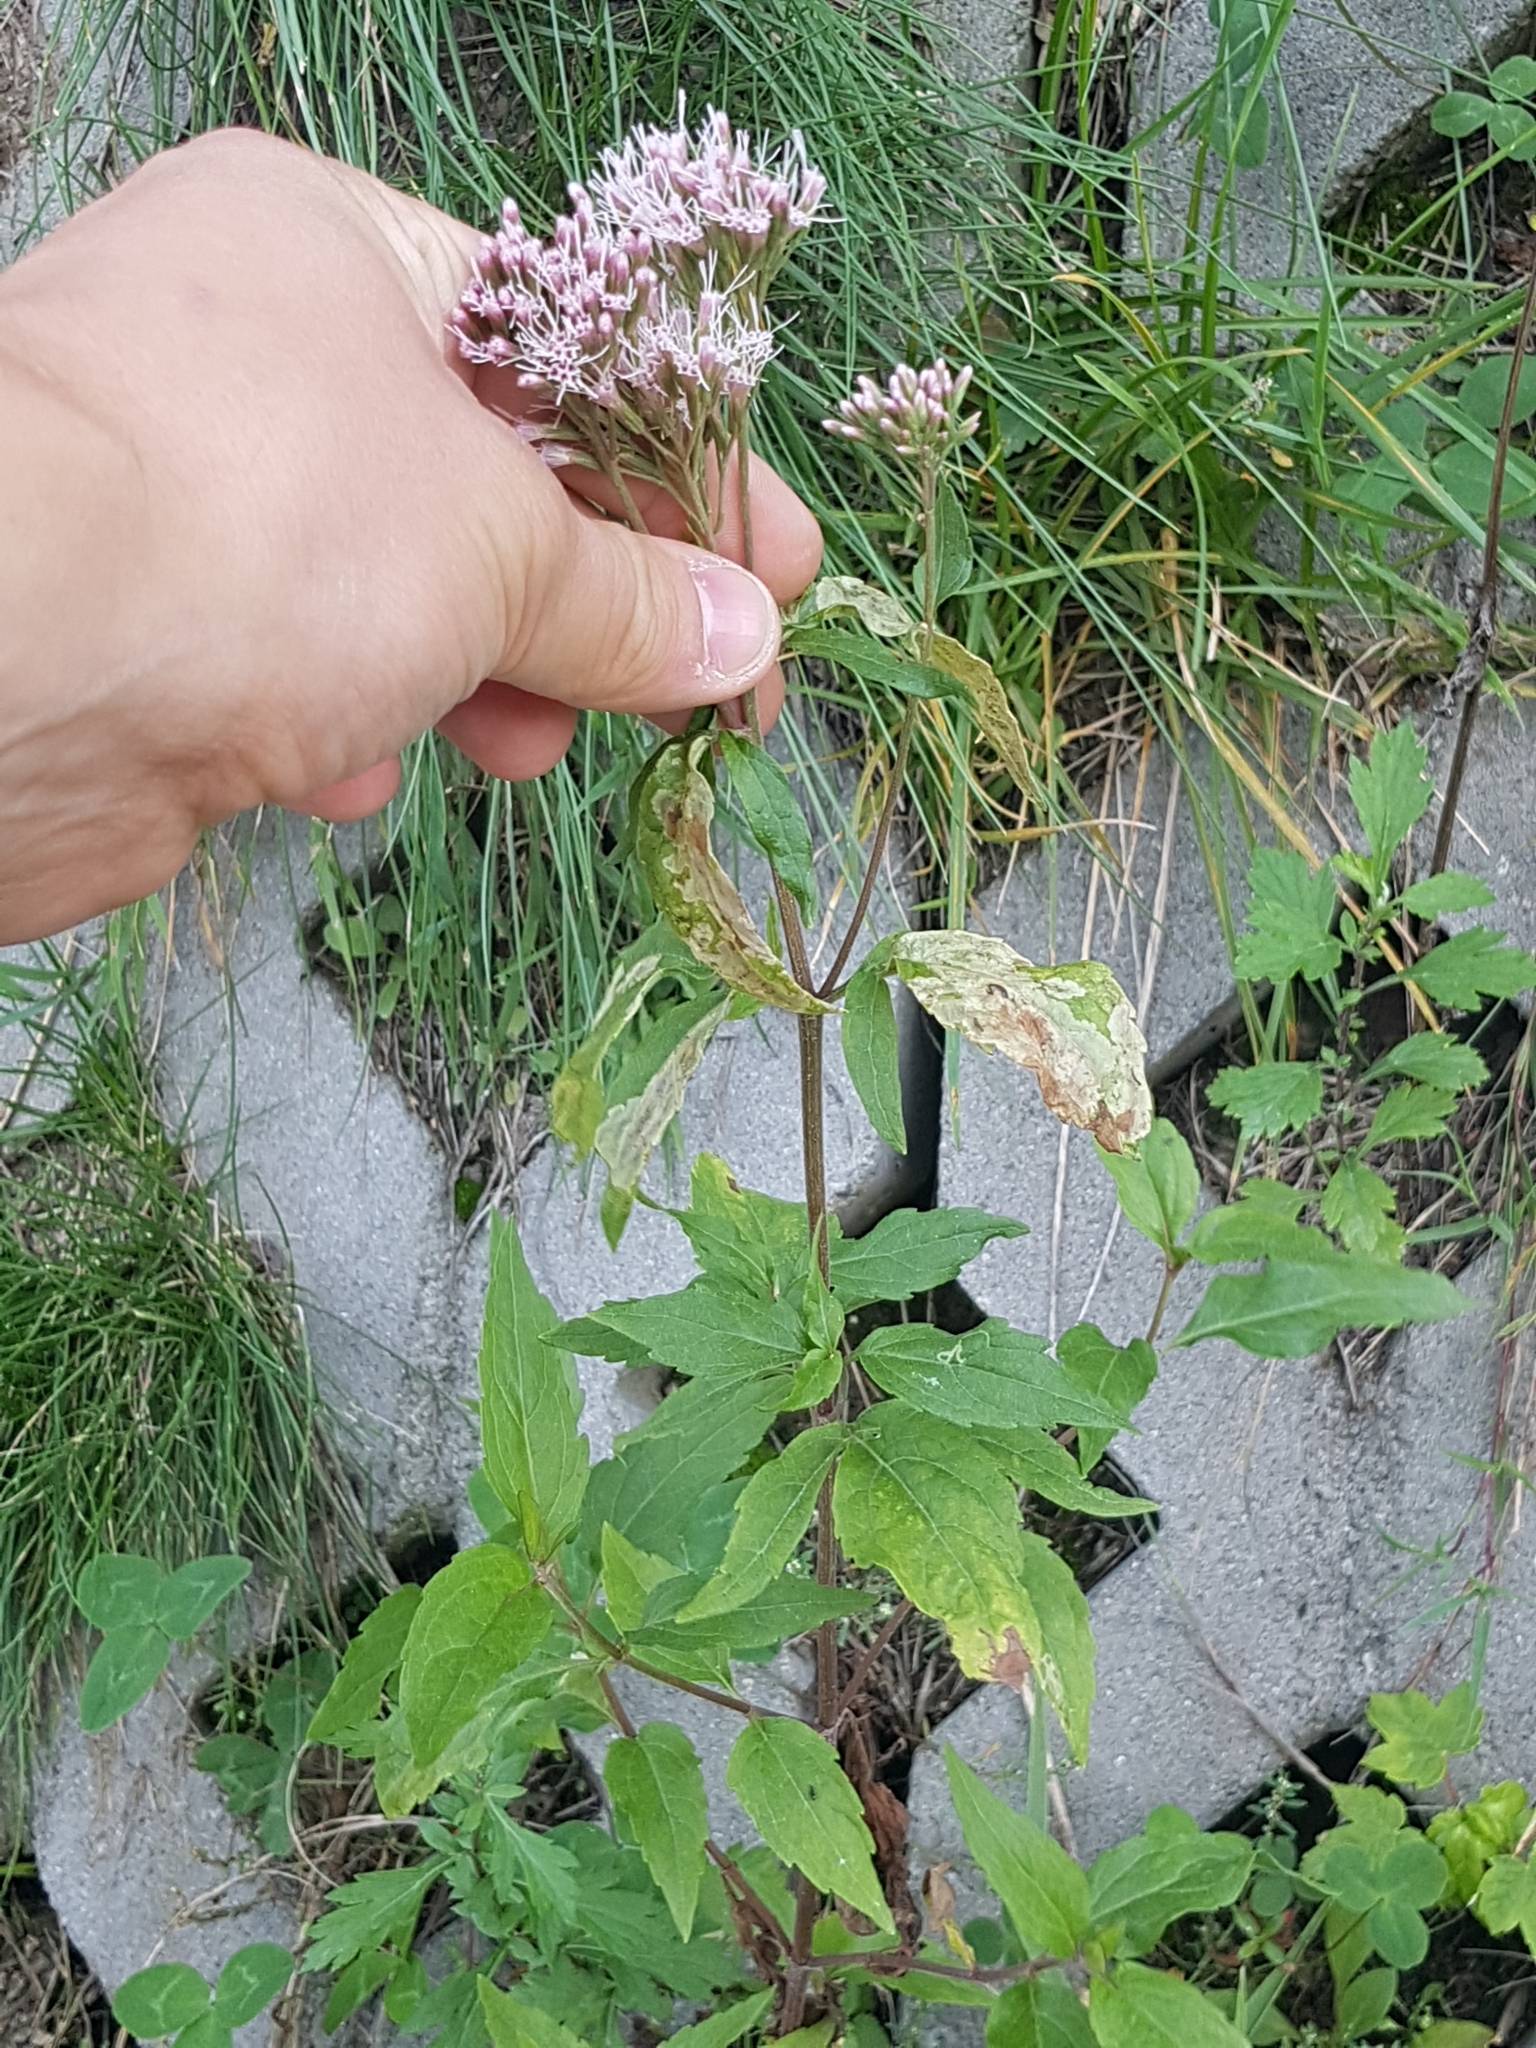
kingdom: Plantae
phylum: Tracheophyta
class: Magnoliopsida
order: Asterales
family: Asteraceae
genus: Eupatorium
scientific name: Eupatorium cannabinum
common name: Hemp-agrimony
